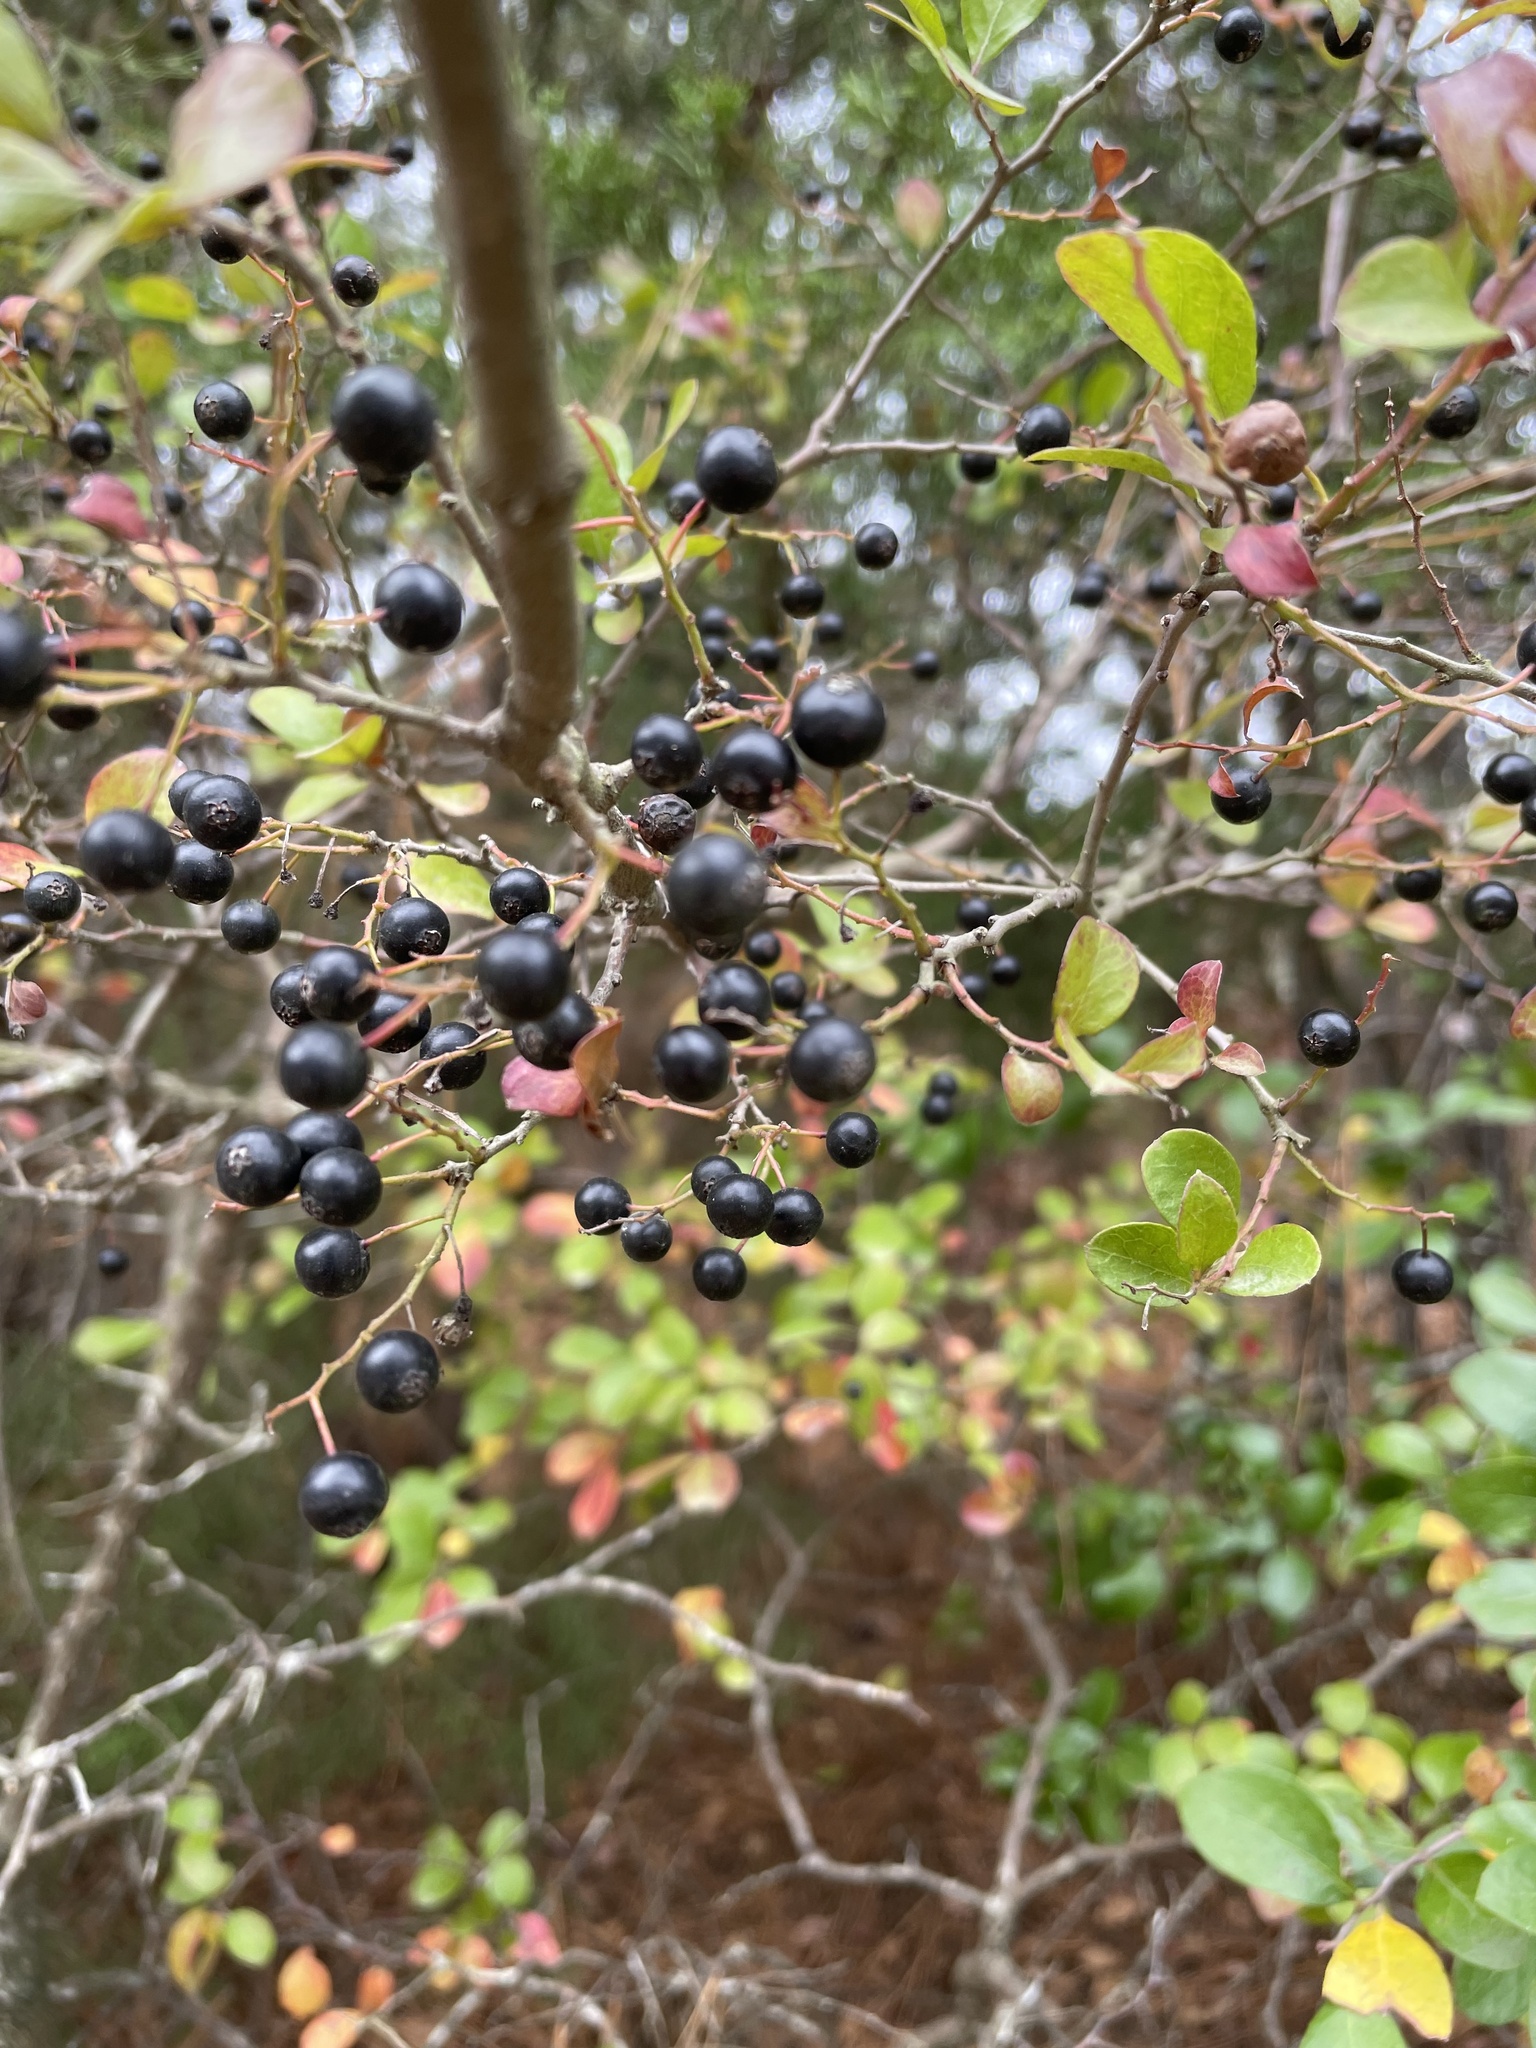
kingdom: Plantae
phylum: Tracheophyta
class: Magnoliopsida
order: Ericales
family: Ericaceae
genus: Vaccinium
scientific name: Vaccinium arboreum
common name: Farkleberry
